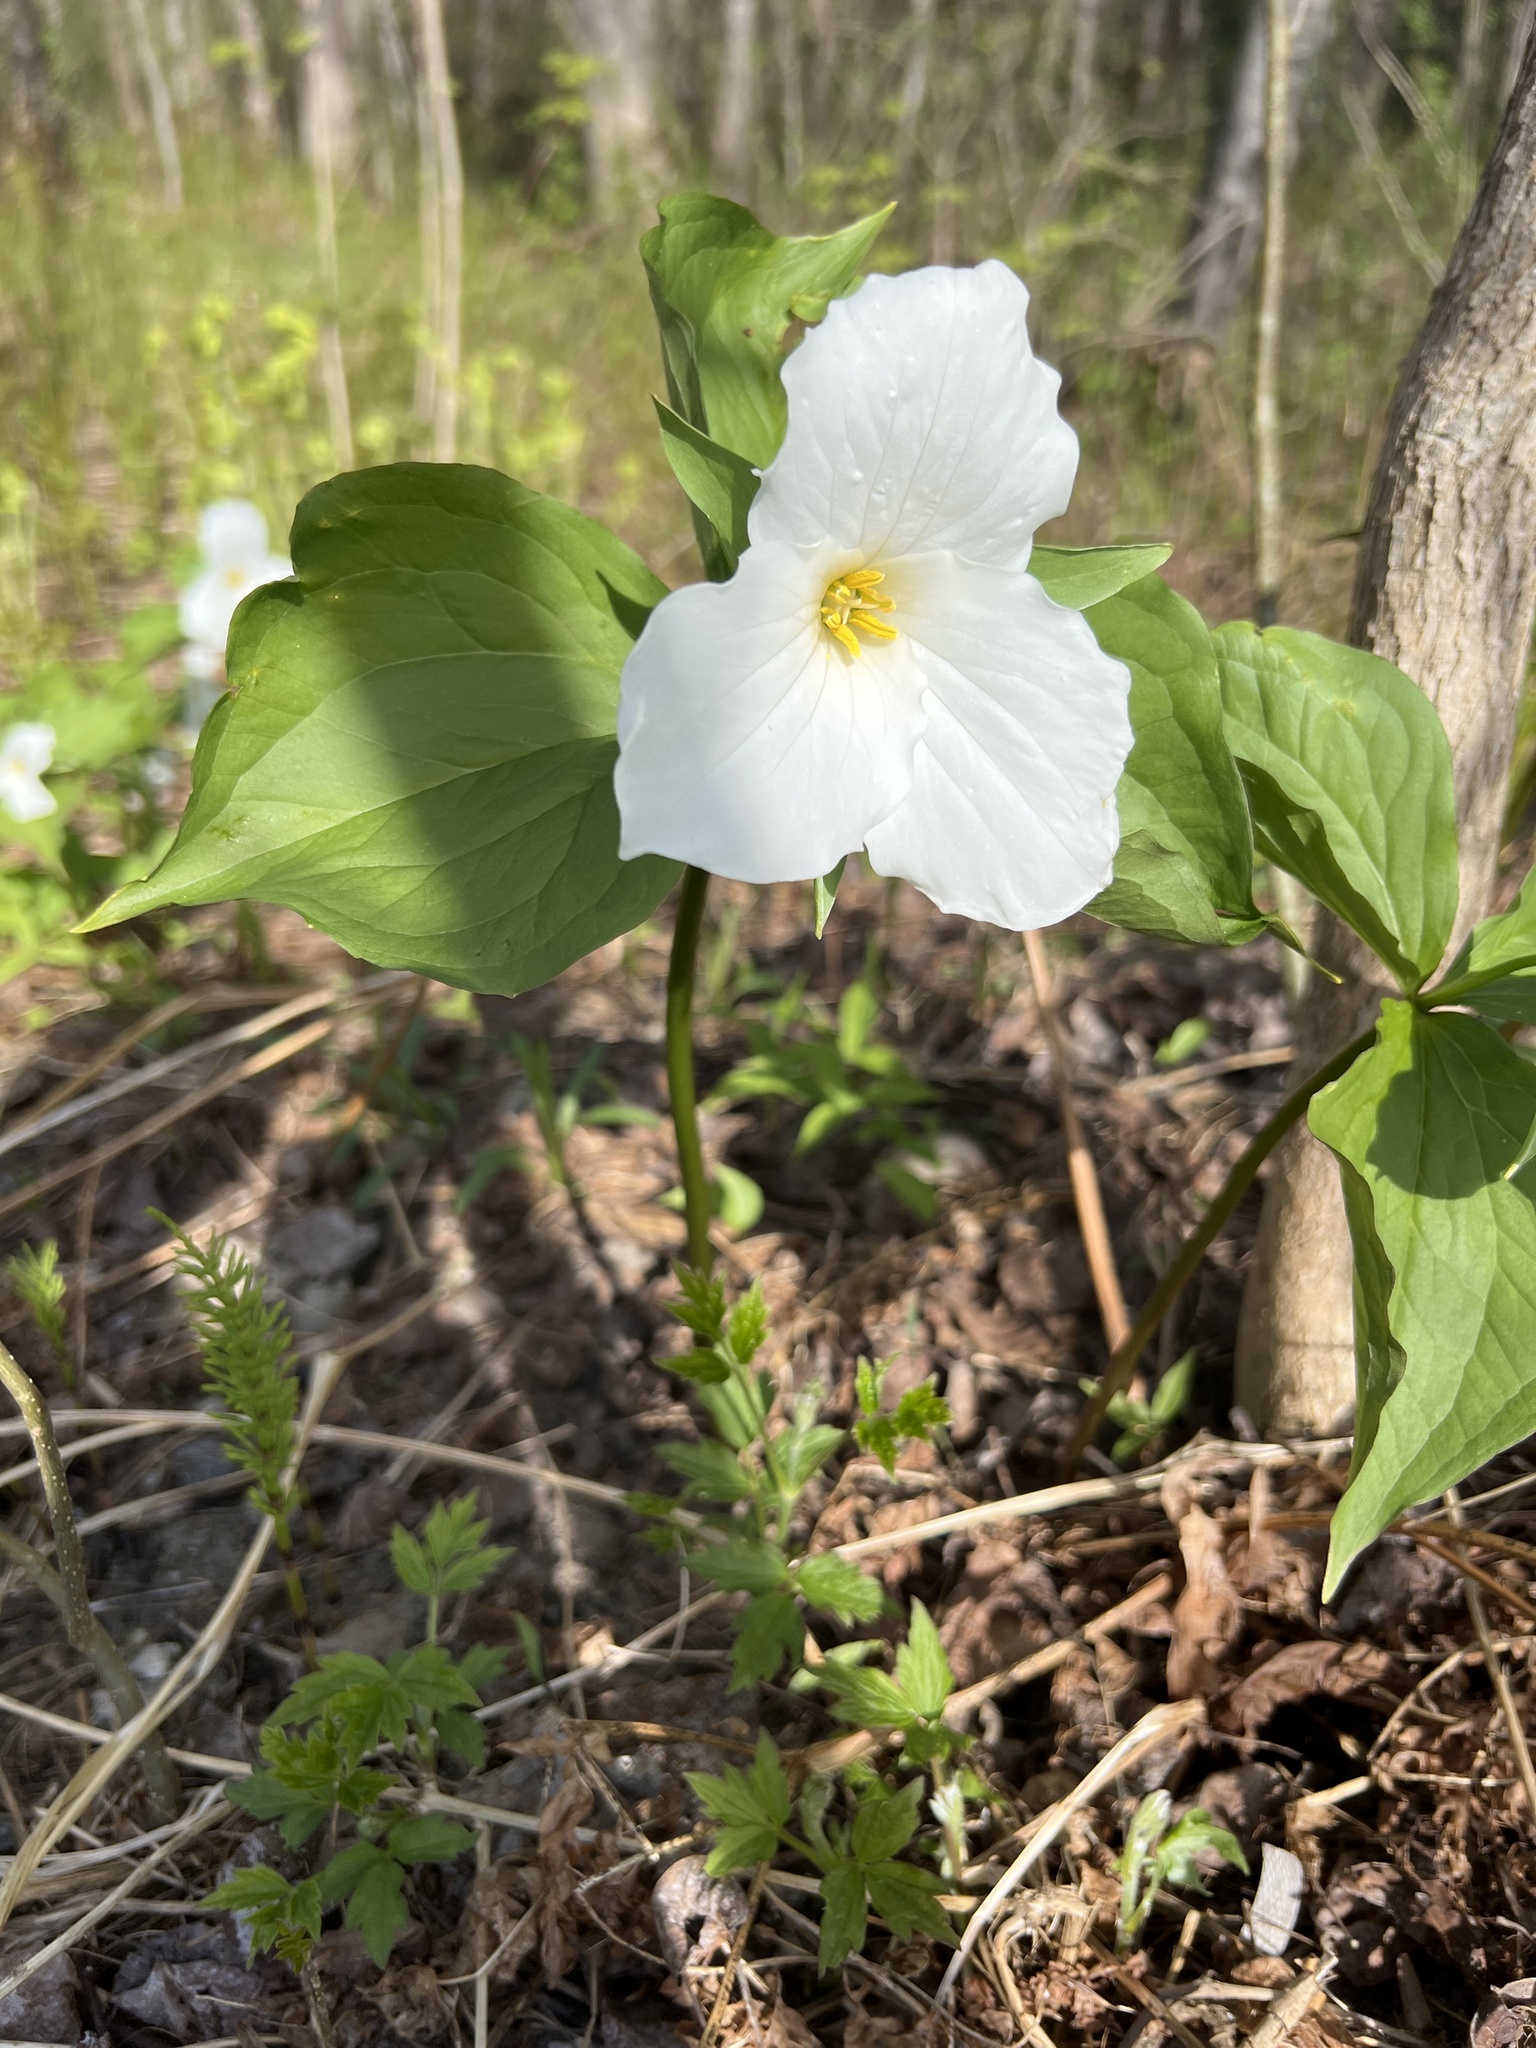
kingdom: Plantae
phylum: Tracheophyta
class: Liliopsida
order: Liliales
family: Melanthiaceae
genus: Trillium
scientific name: Trillium grandiflorum
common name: Great white trillium
